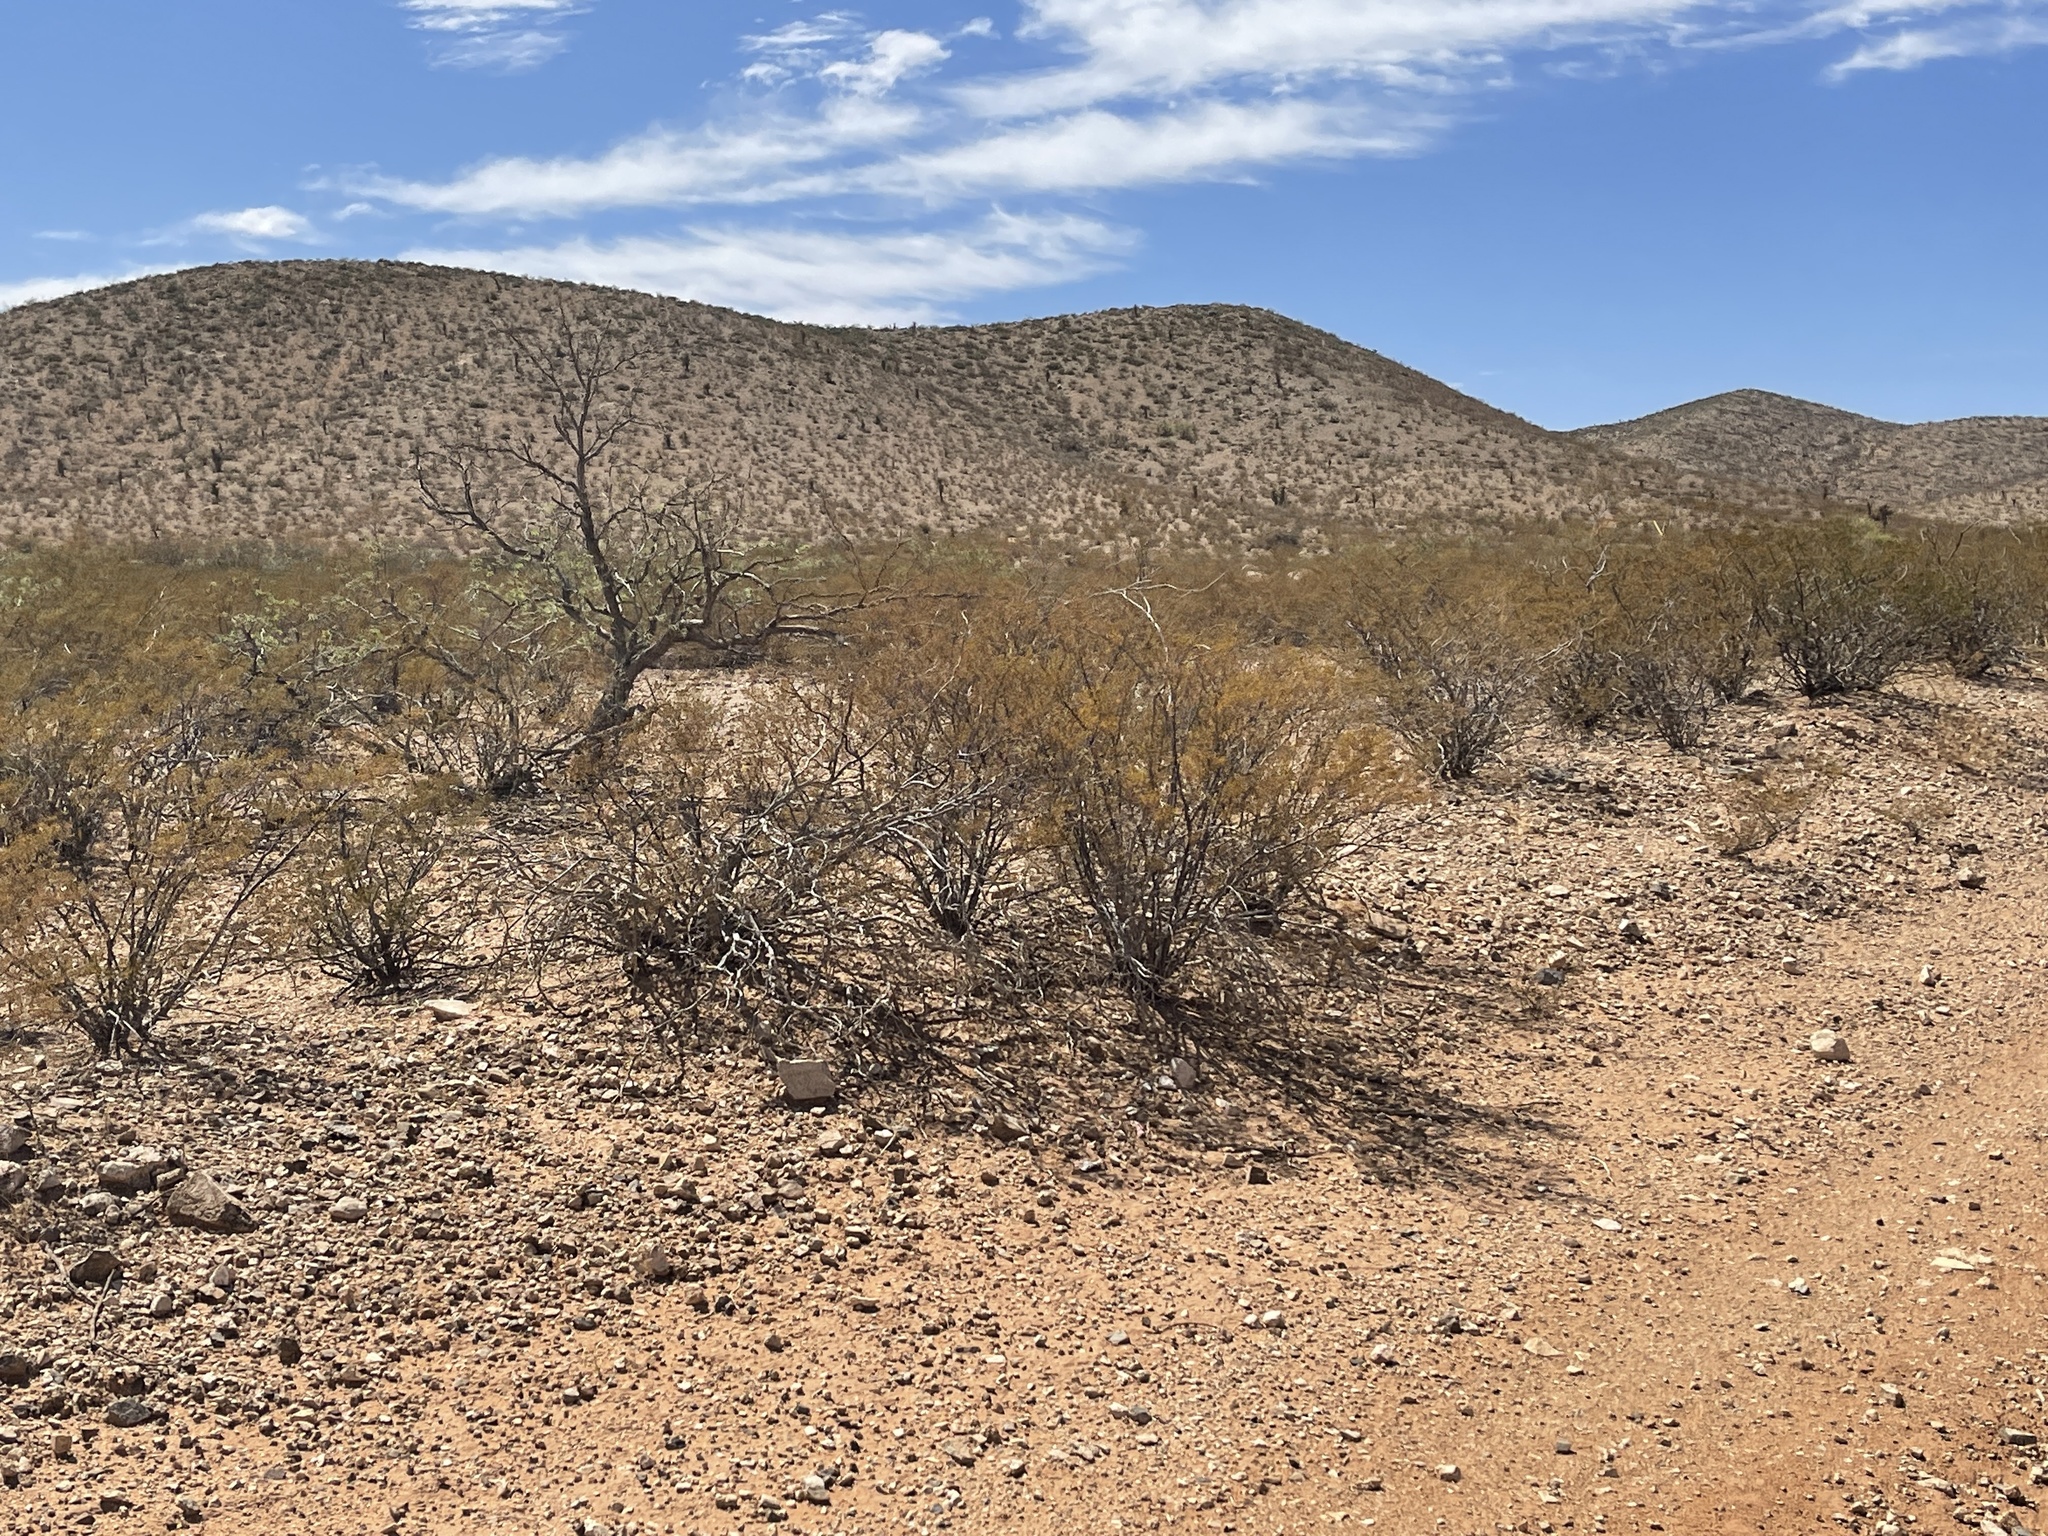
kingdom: Plantae
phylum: Tracheophyta
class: Magnoliopsida
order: Zygophyllales
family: Zygophyllaceae
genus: Larrea
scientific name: Larrea tridentata
